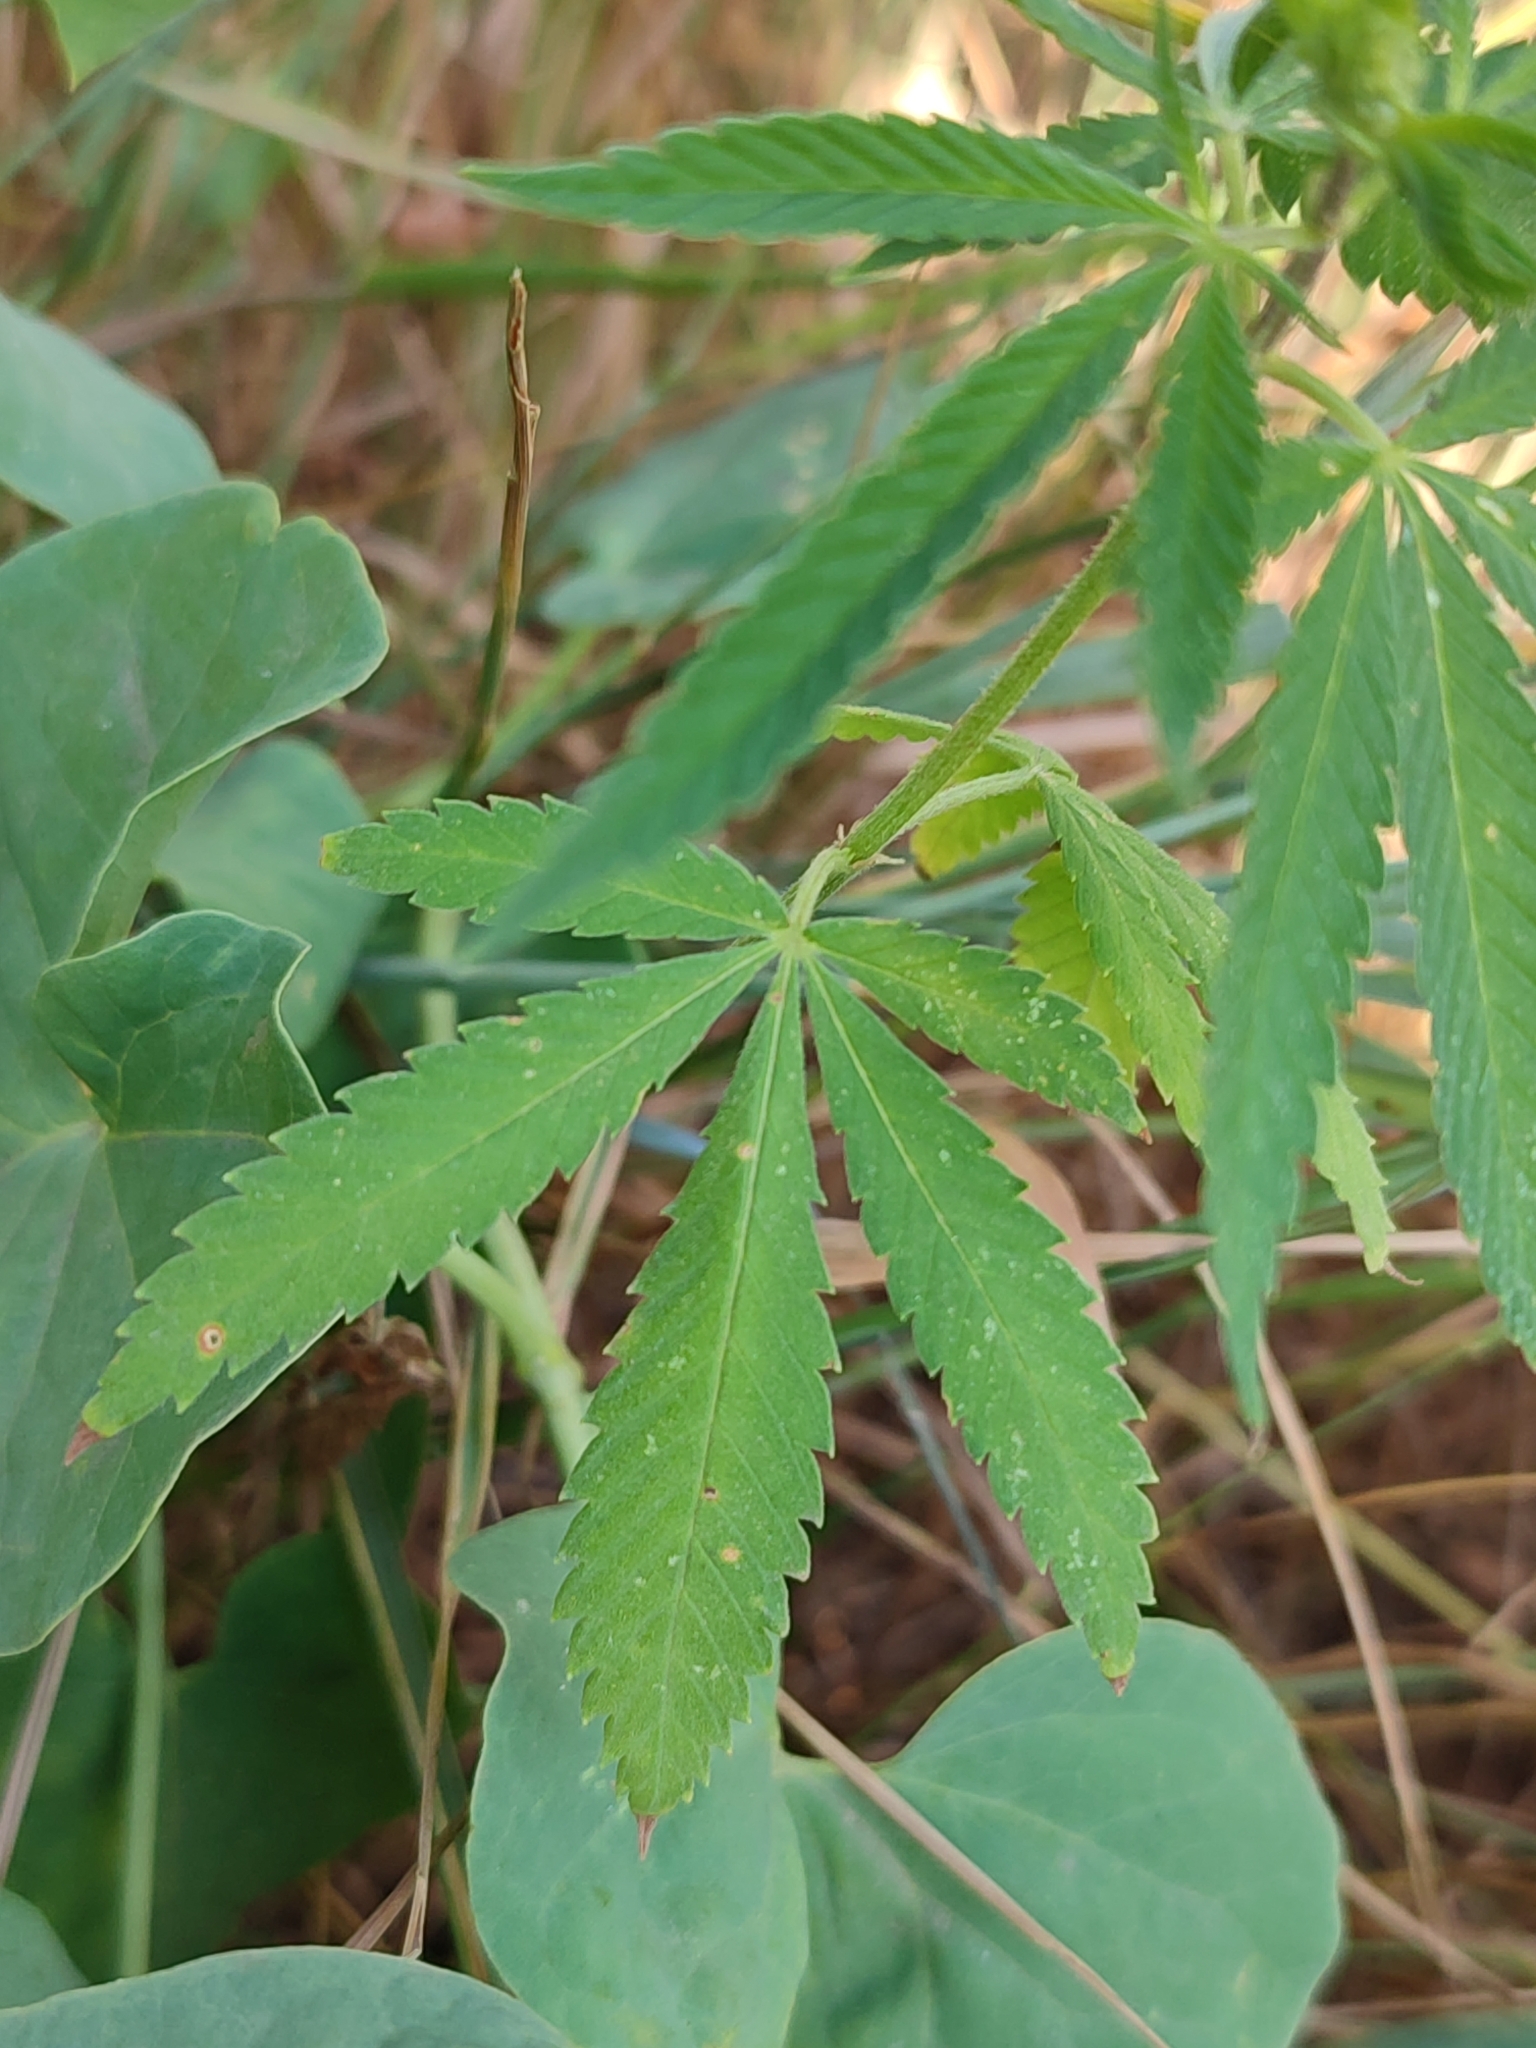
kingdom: Plantae
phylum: Tracheophyta
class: Magnoliopsida
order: Rosales
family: Cannabaceae
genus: Cannabis
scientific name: Cannabis sativa
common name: Hemp
